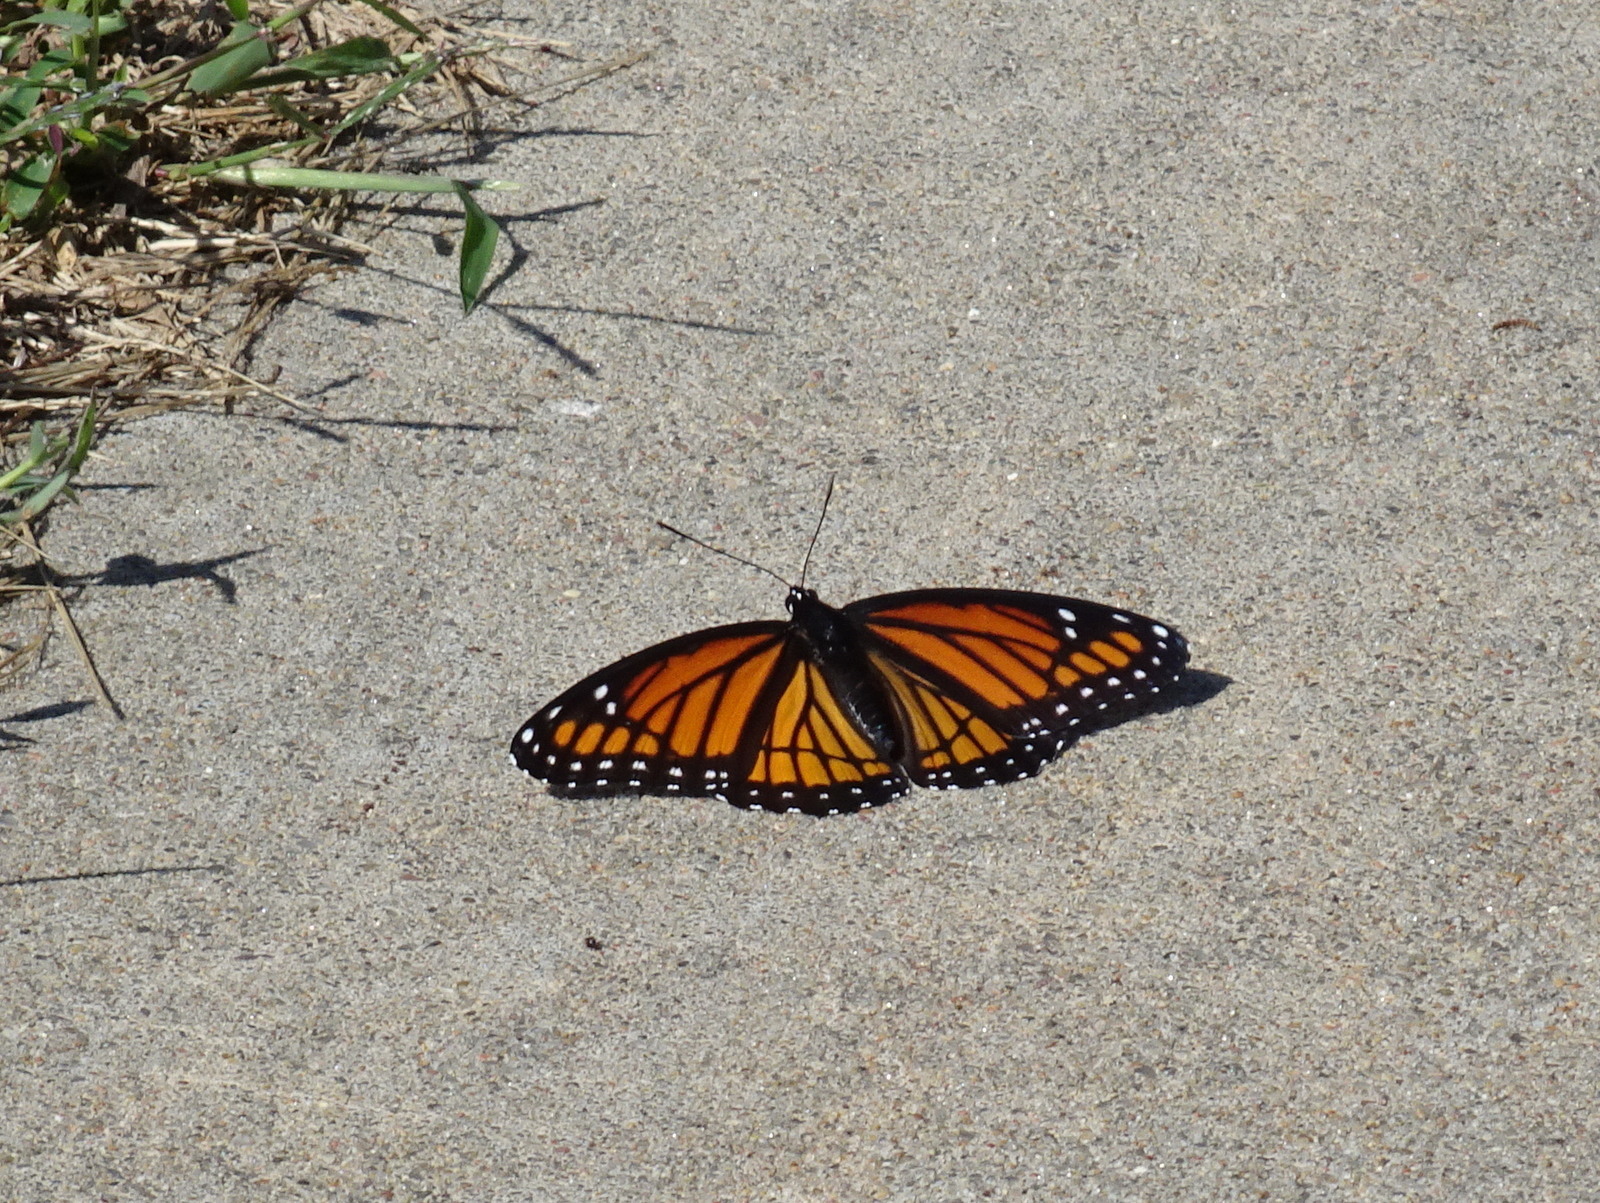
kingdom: Animalia
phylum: Arthropoda
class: Insecta
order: Lepidoptera
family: Nymphalidae
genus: Limenitis
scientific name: Limenitis archippus
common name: Viceroy
